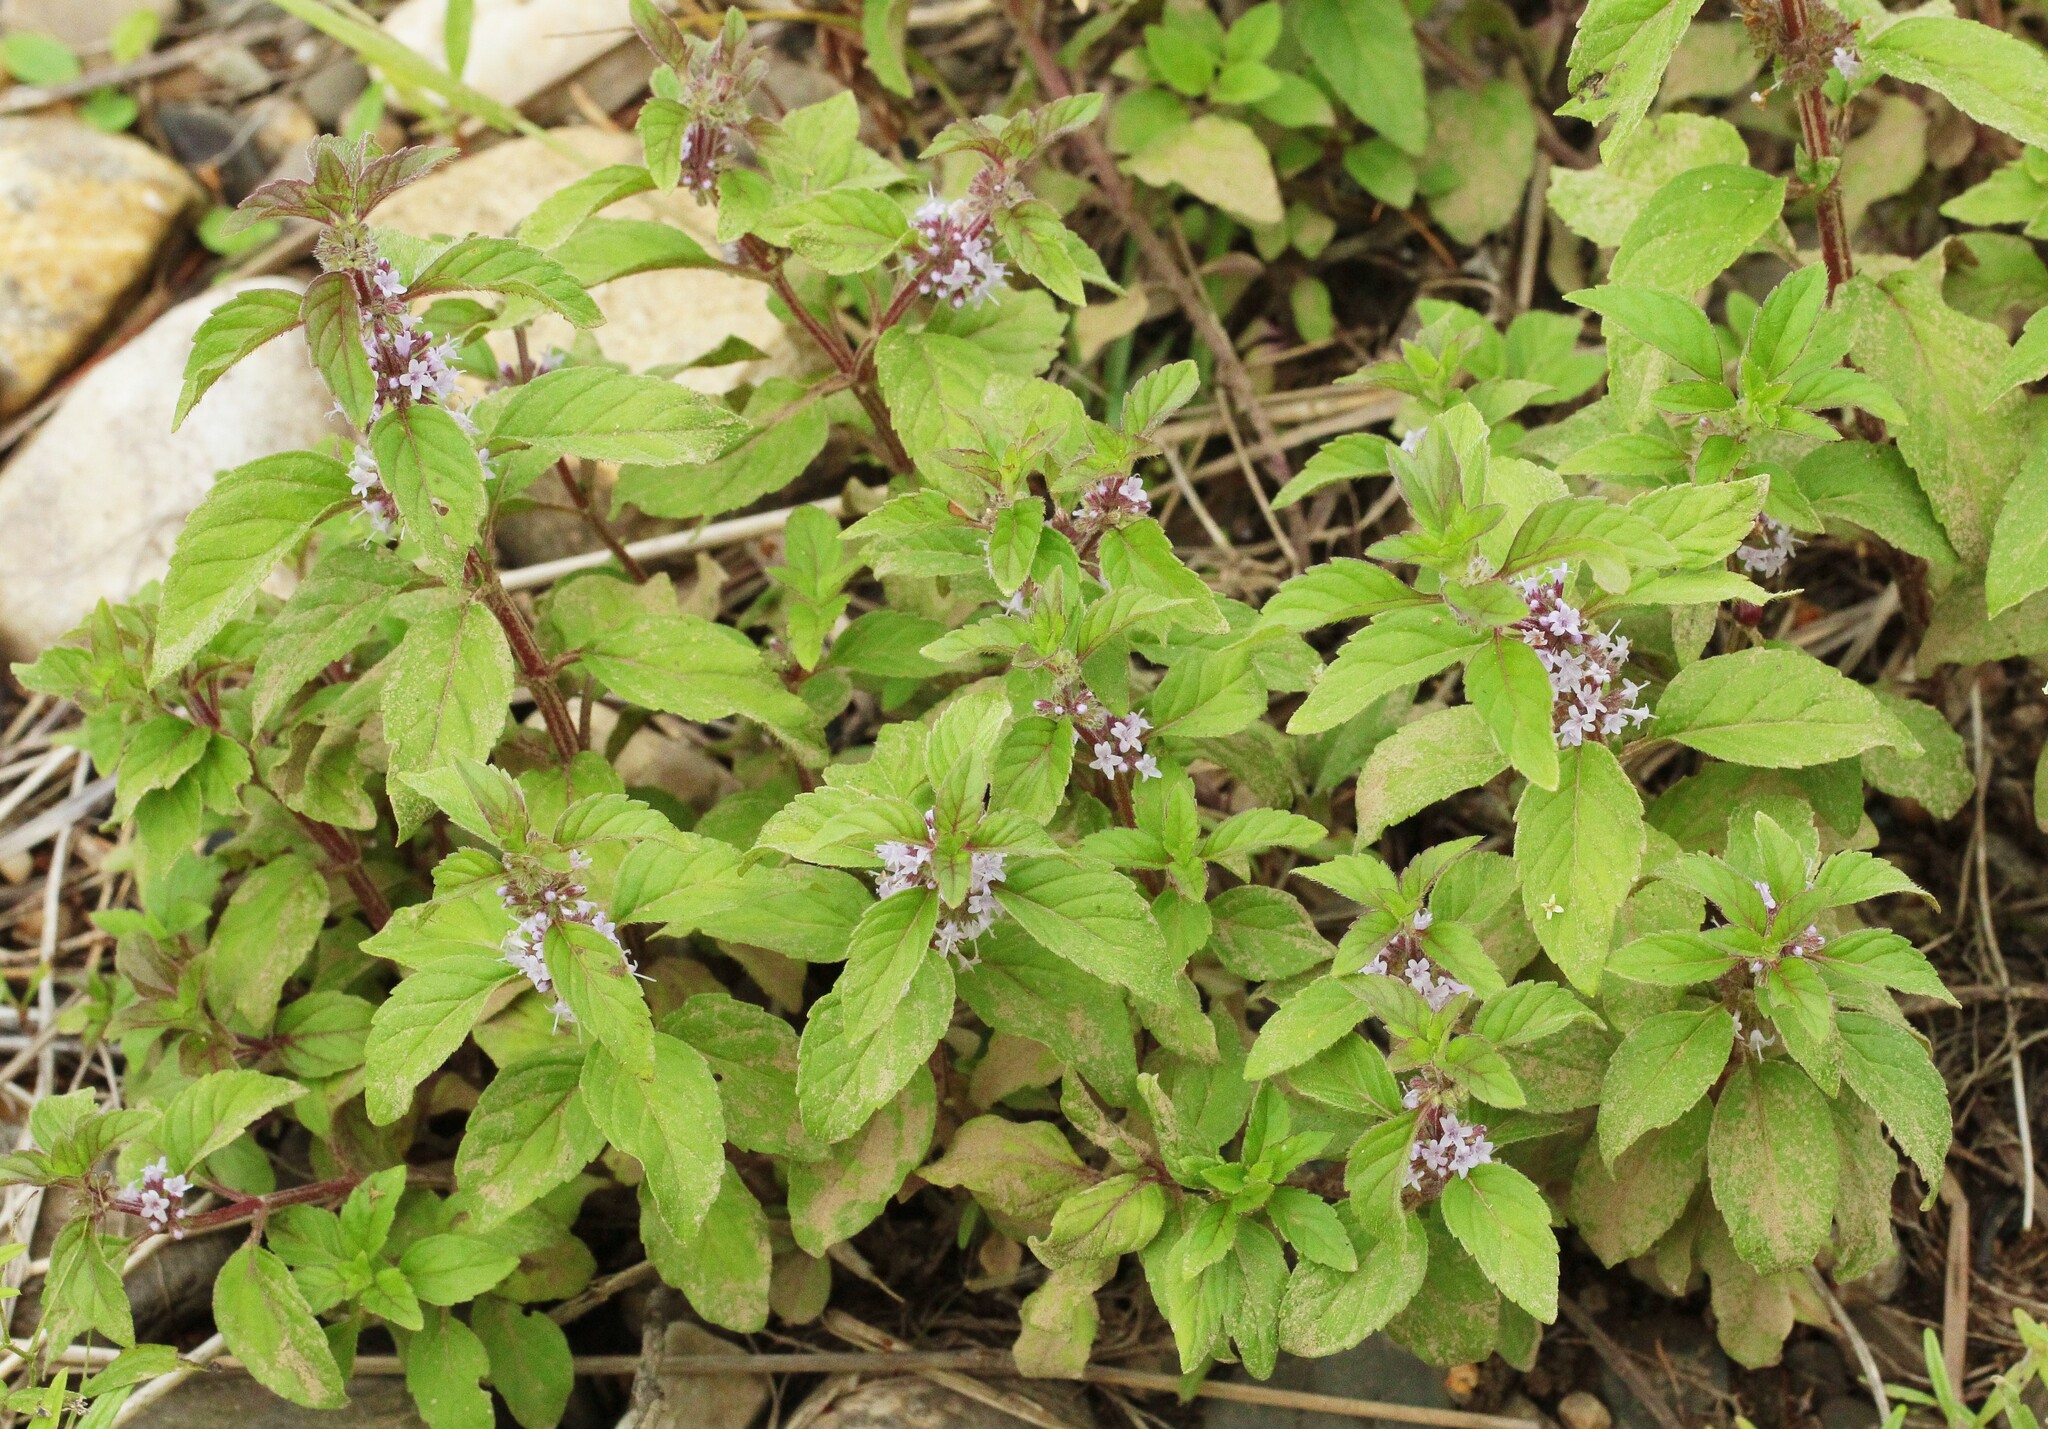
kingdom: Plantae
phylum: Tracheophyta
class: Magnoliopsida
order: Lamiales
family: Lamiaceae
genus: Mentha
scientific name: Mentha arvensis
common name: Corn mint
